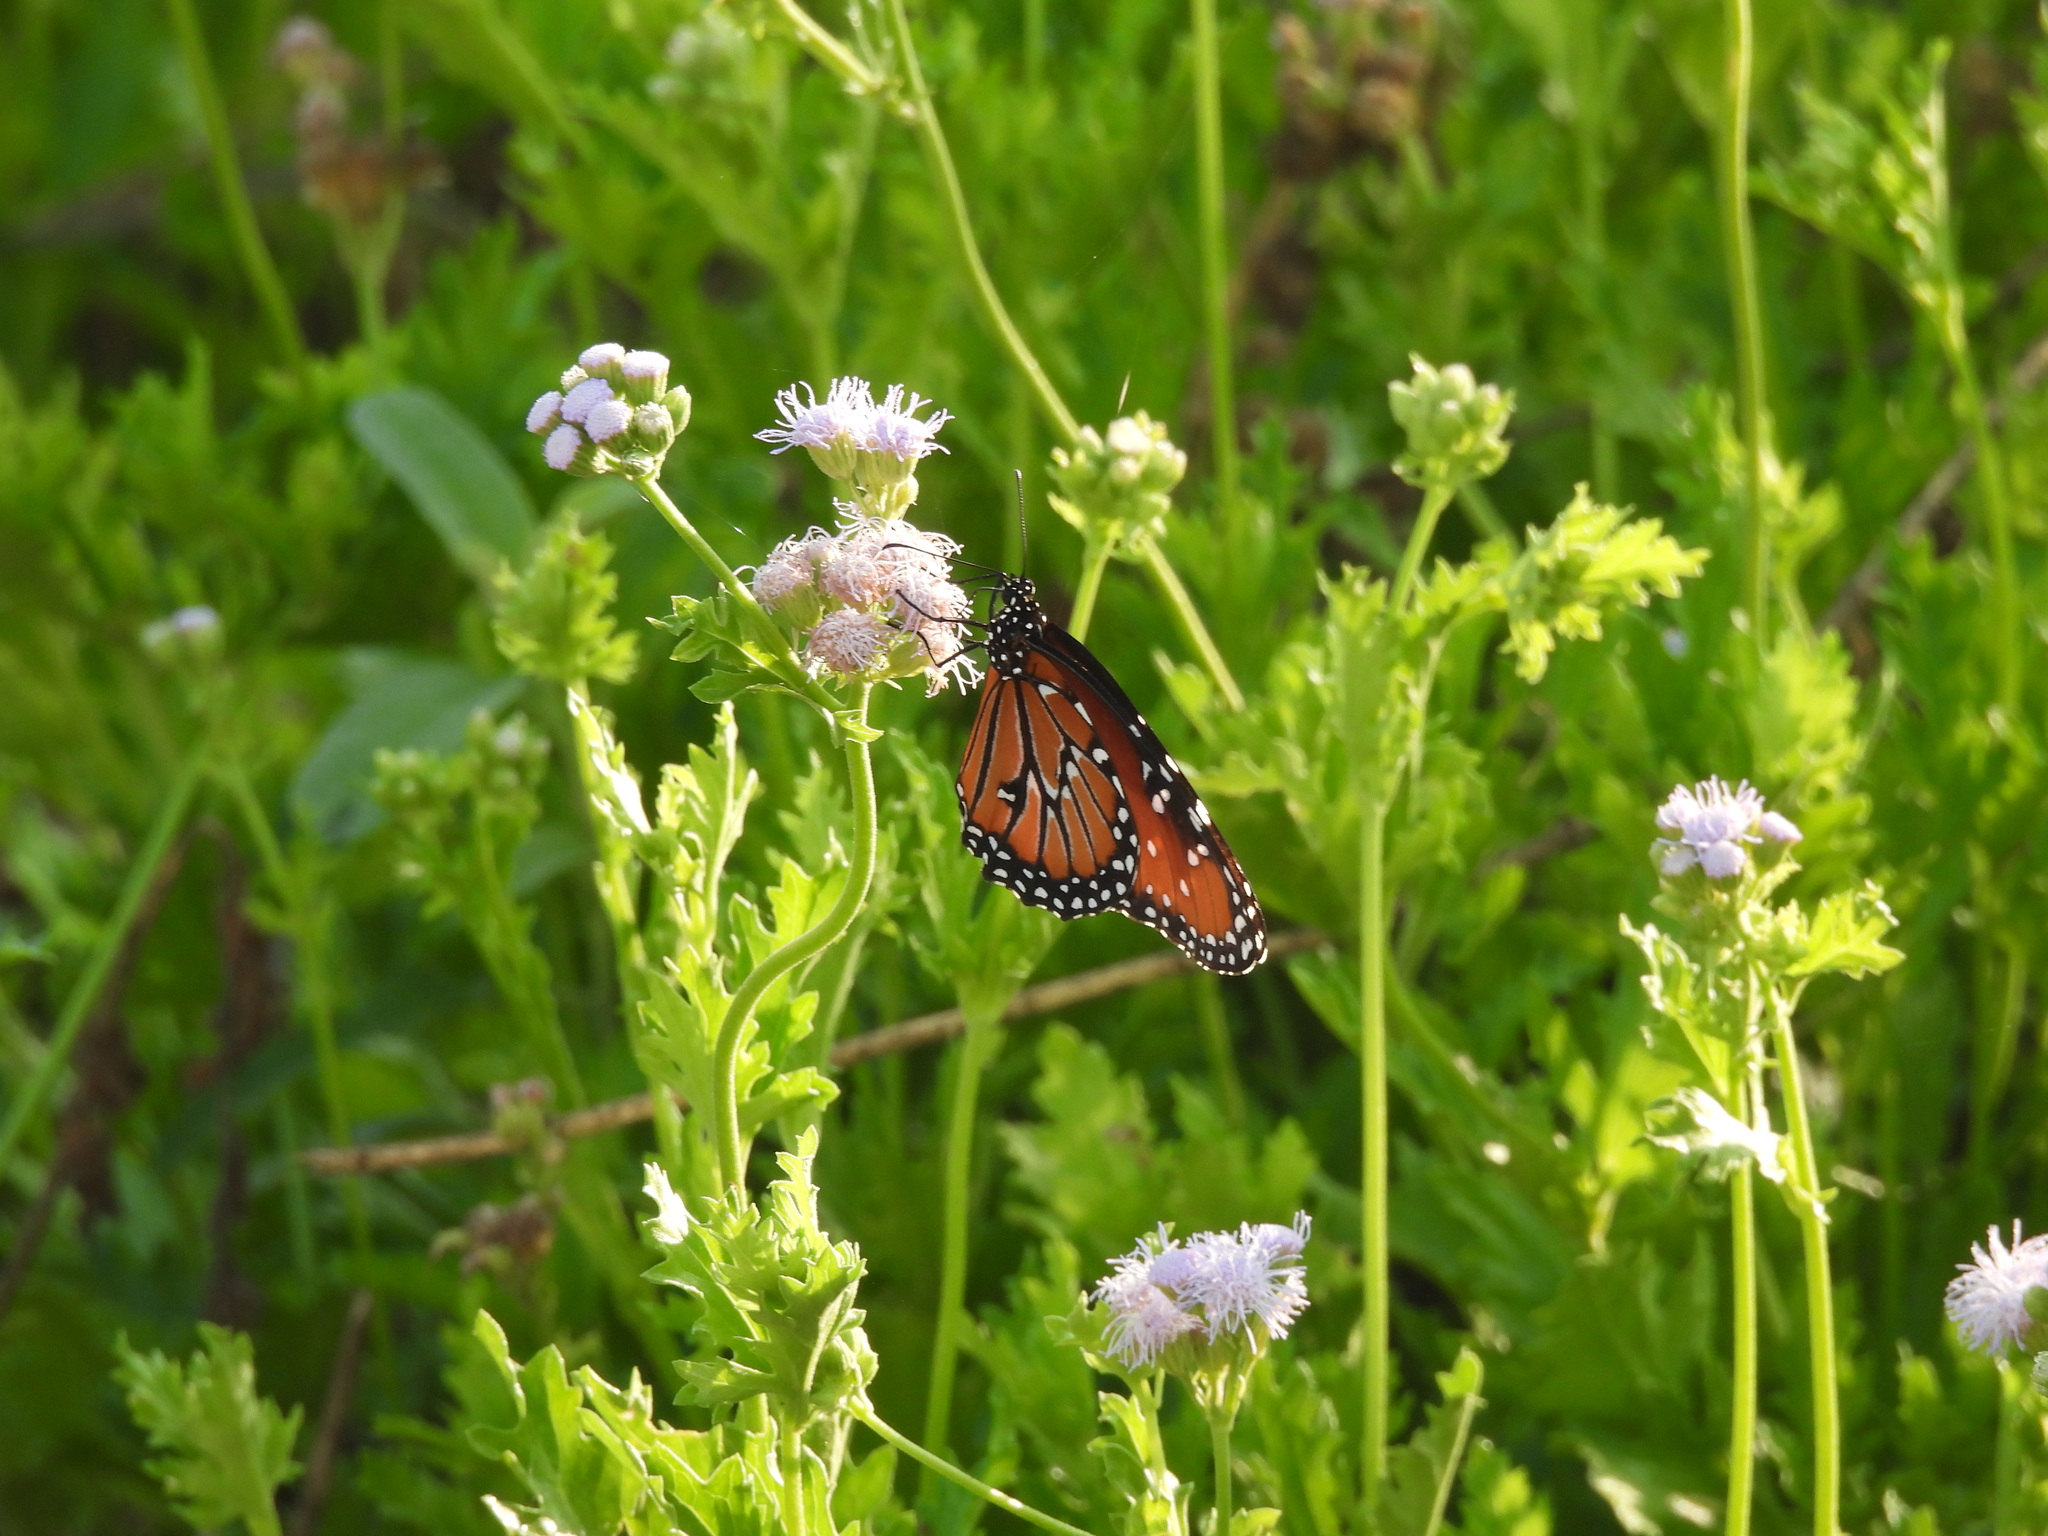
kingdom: Animalia
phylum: Arthropoda
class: Insecta
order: Lepidoptera
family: Nymphalidae
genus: Danaus
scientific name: Danaus gilippus
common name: Queen
